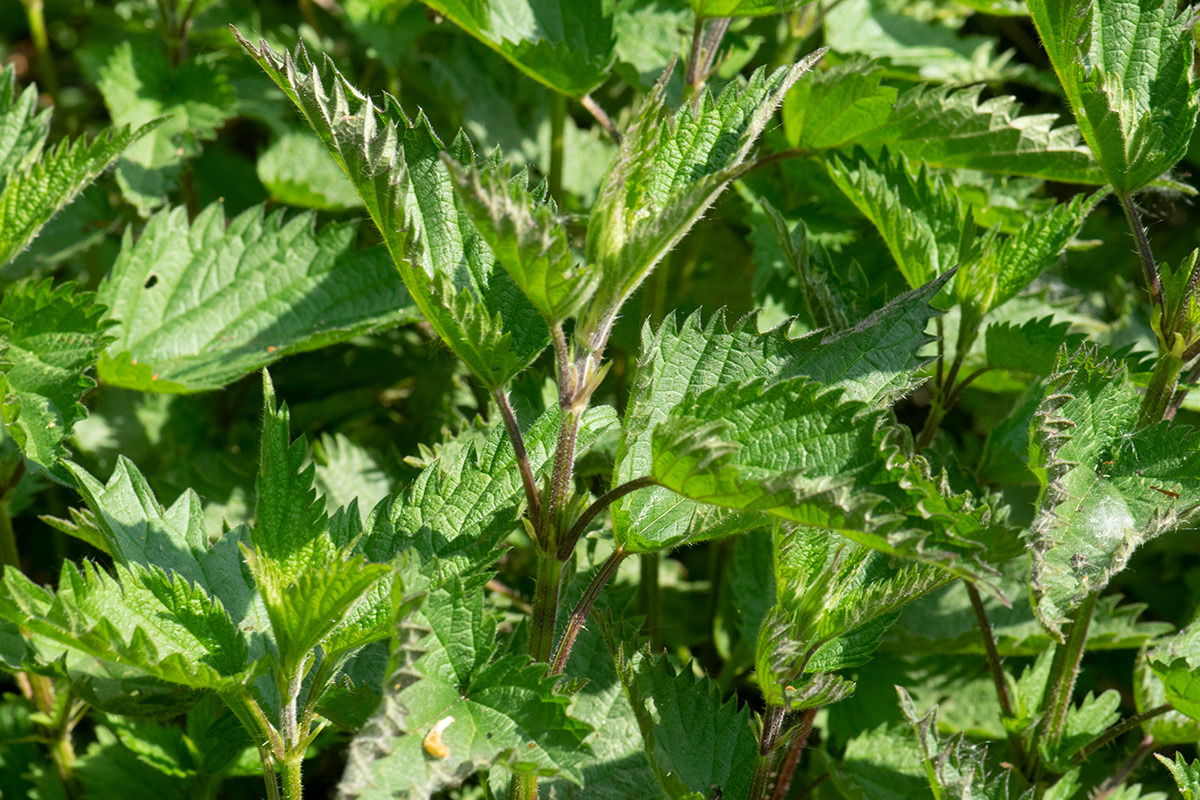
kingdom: Plantae
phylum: Tracheophyta
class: Magnoliopsida
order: Rosales
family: Urticaceae
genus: Urtica
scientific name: Urtica dioica
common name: Common nettle
